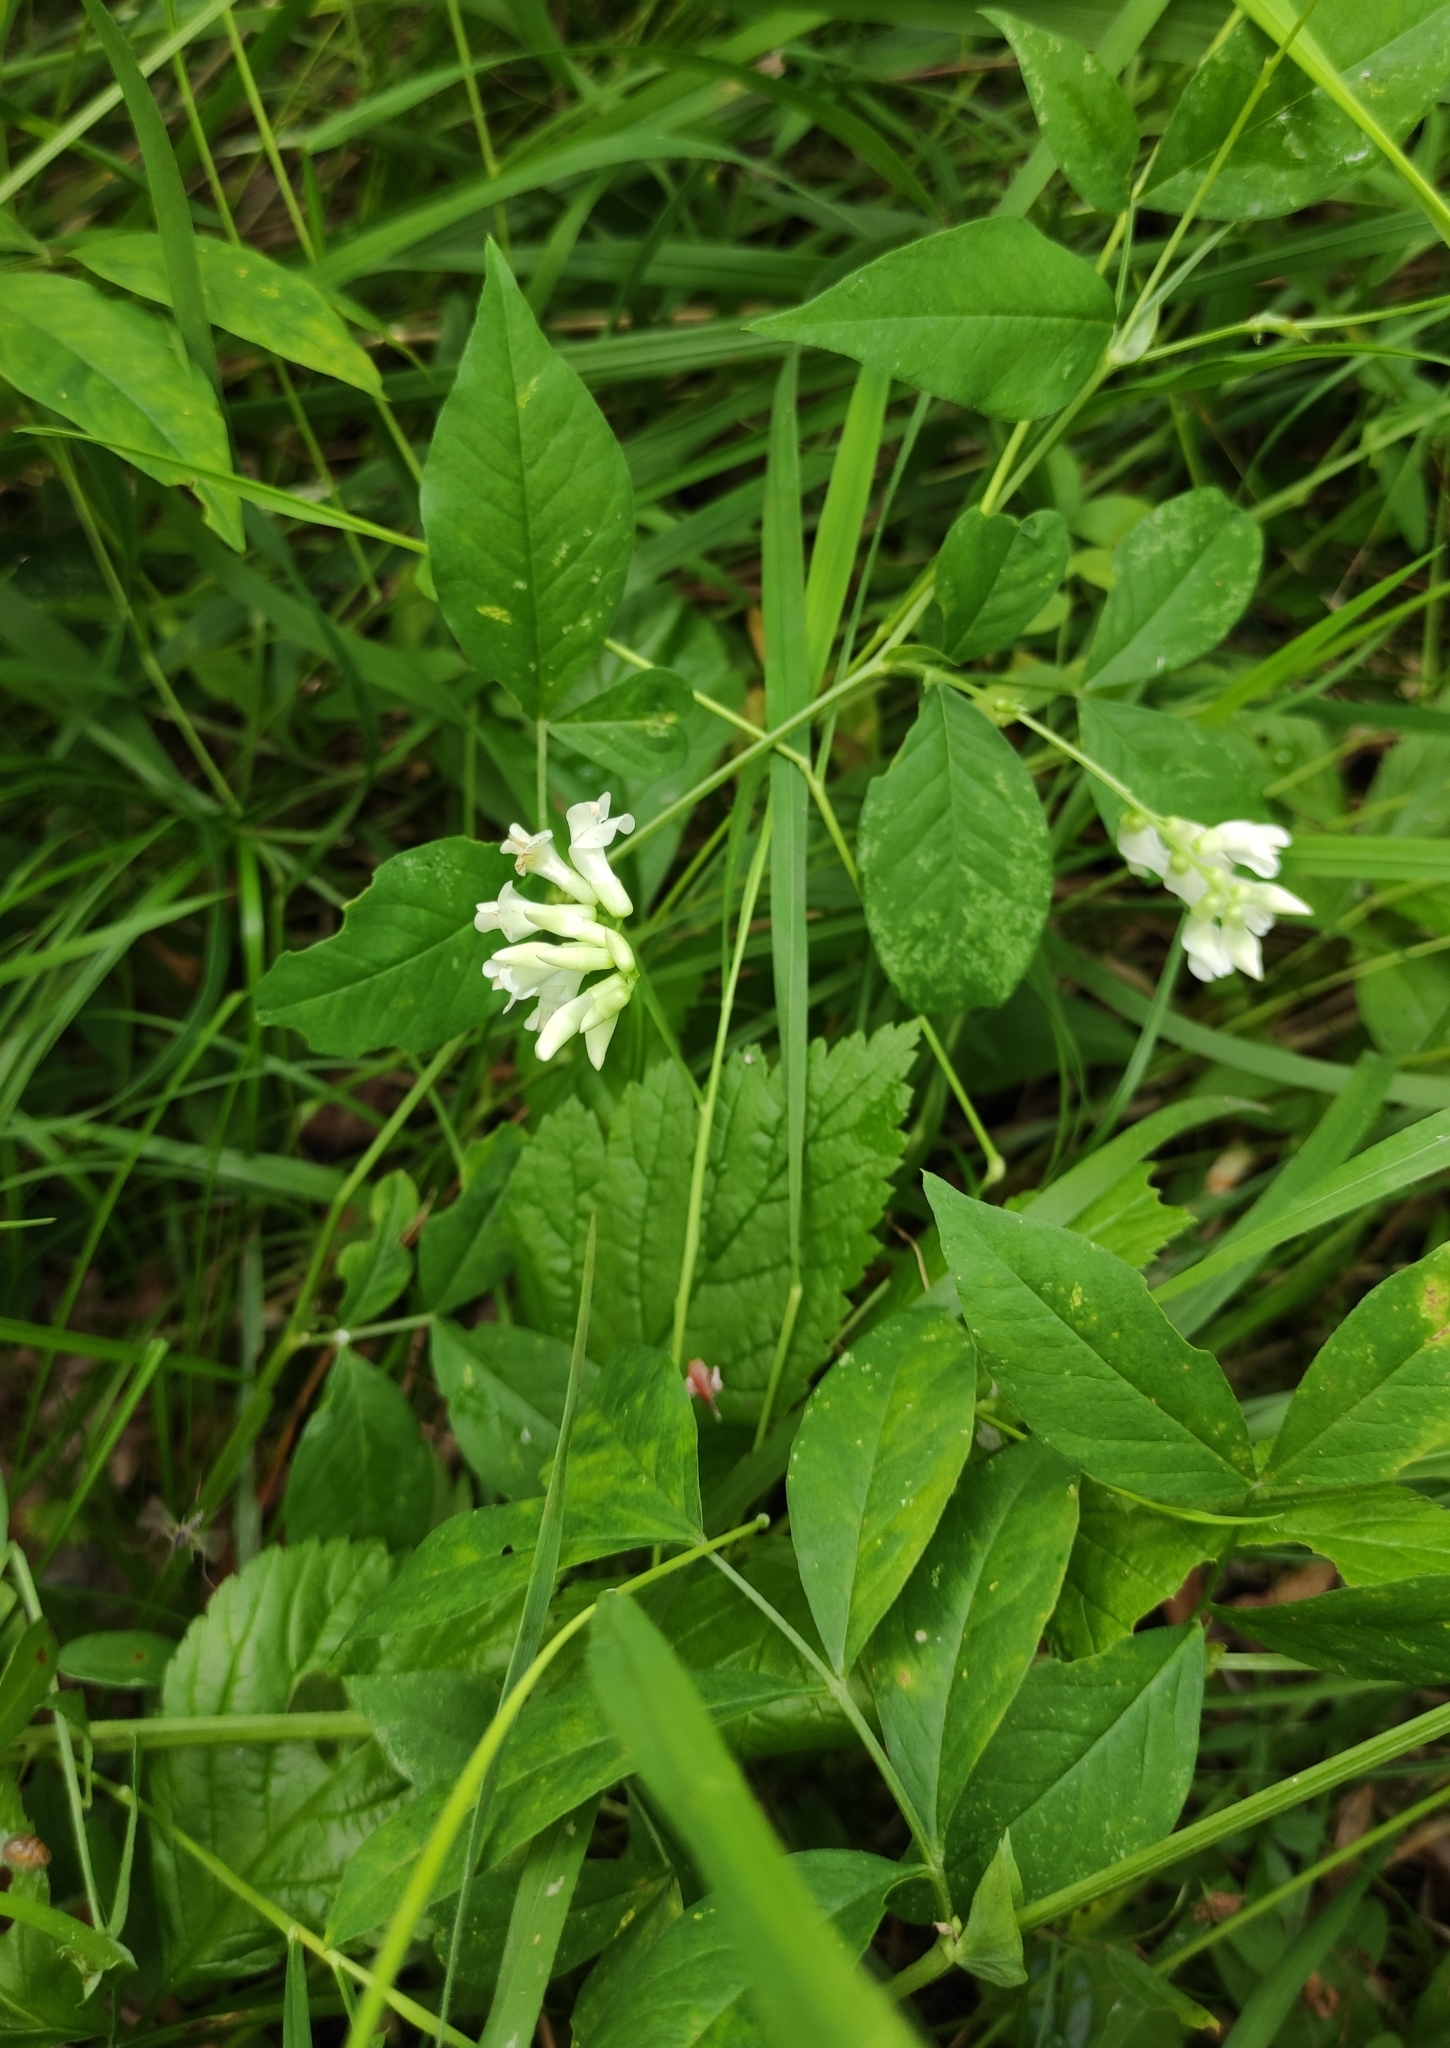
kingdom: Plantae
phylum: Tracheophyta
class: Magnoliopsida
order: Fabales
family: Fabaceae
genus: Vicia
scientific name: Vicia unijuga
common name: Two-leaf vetch
